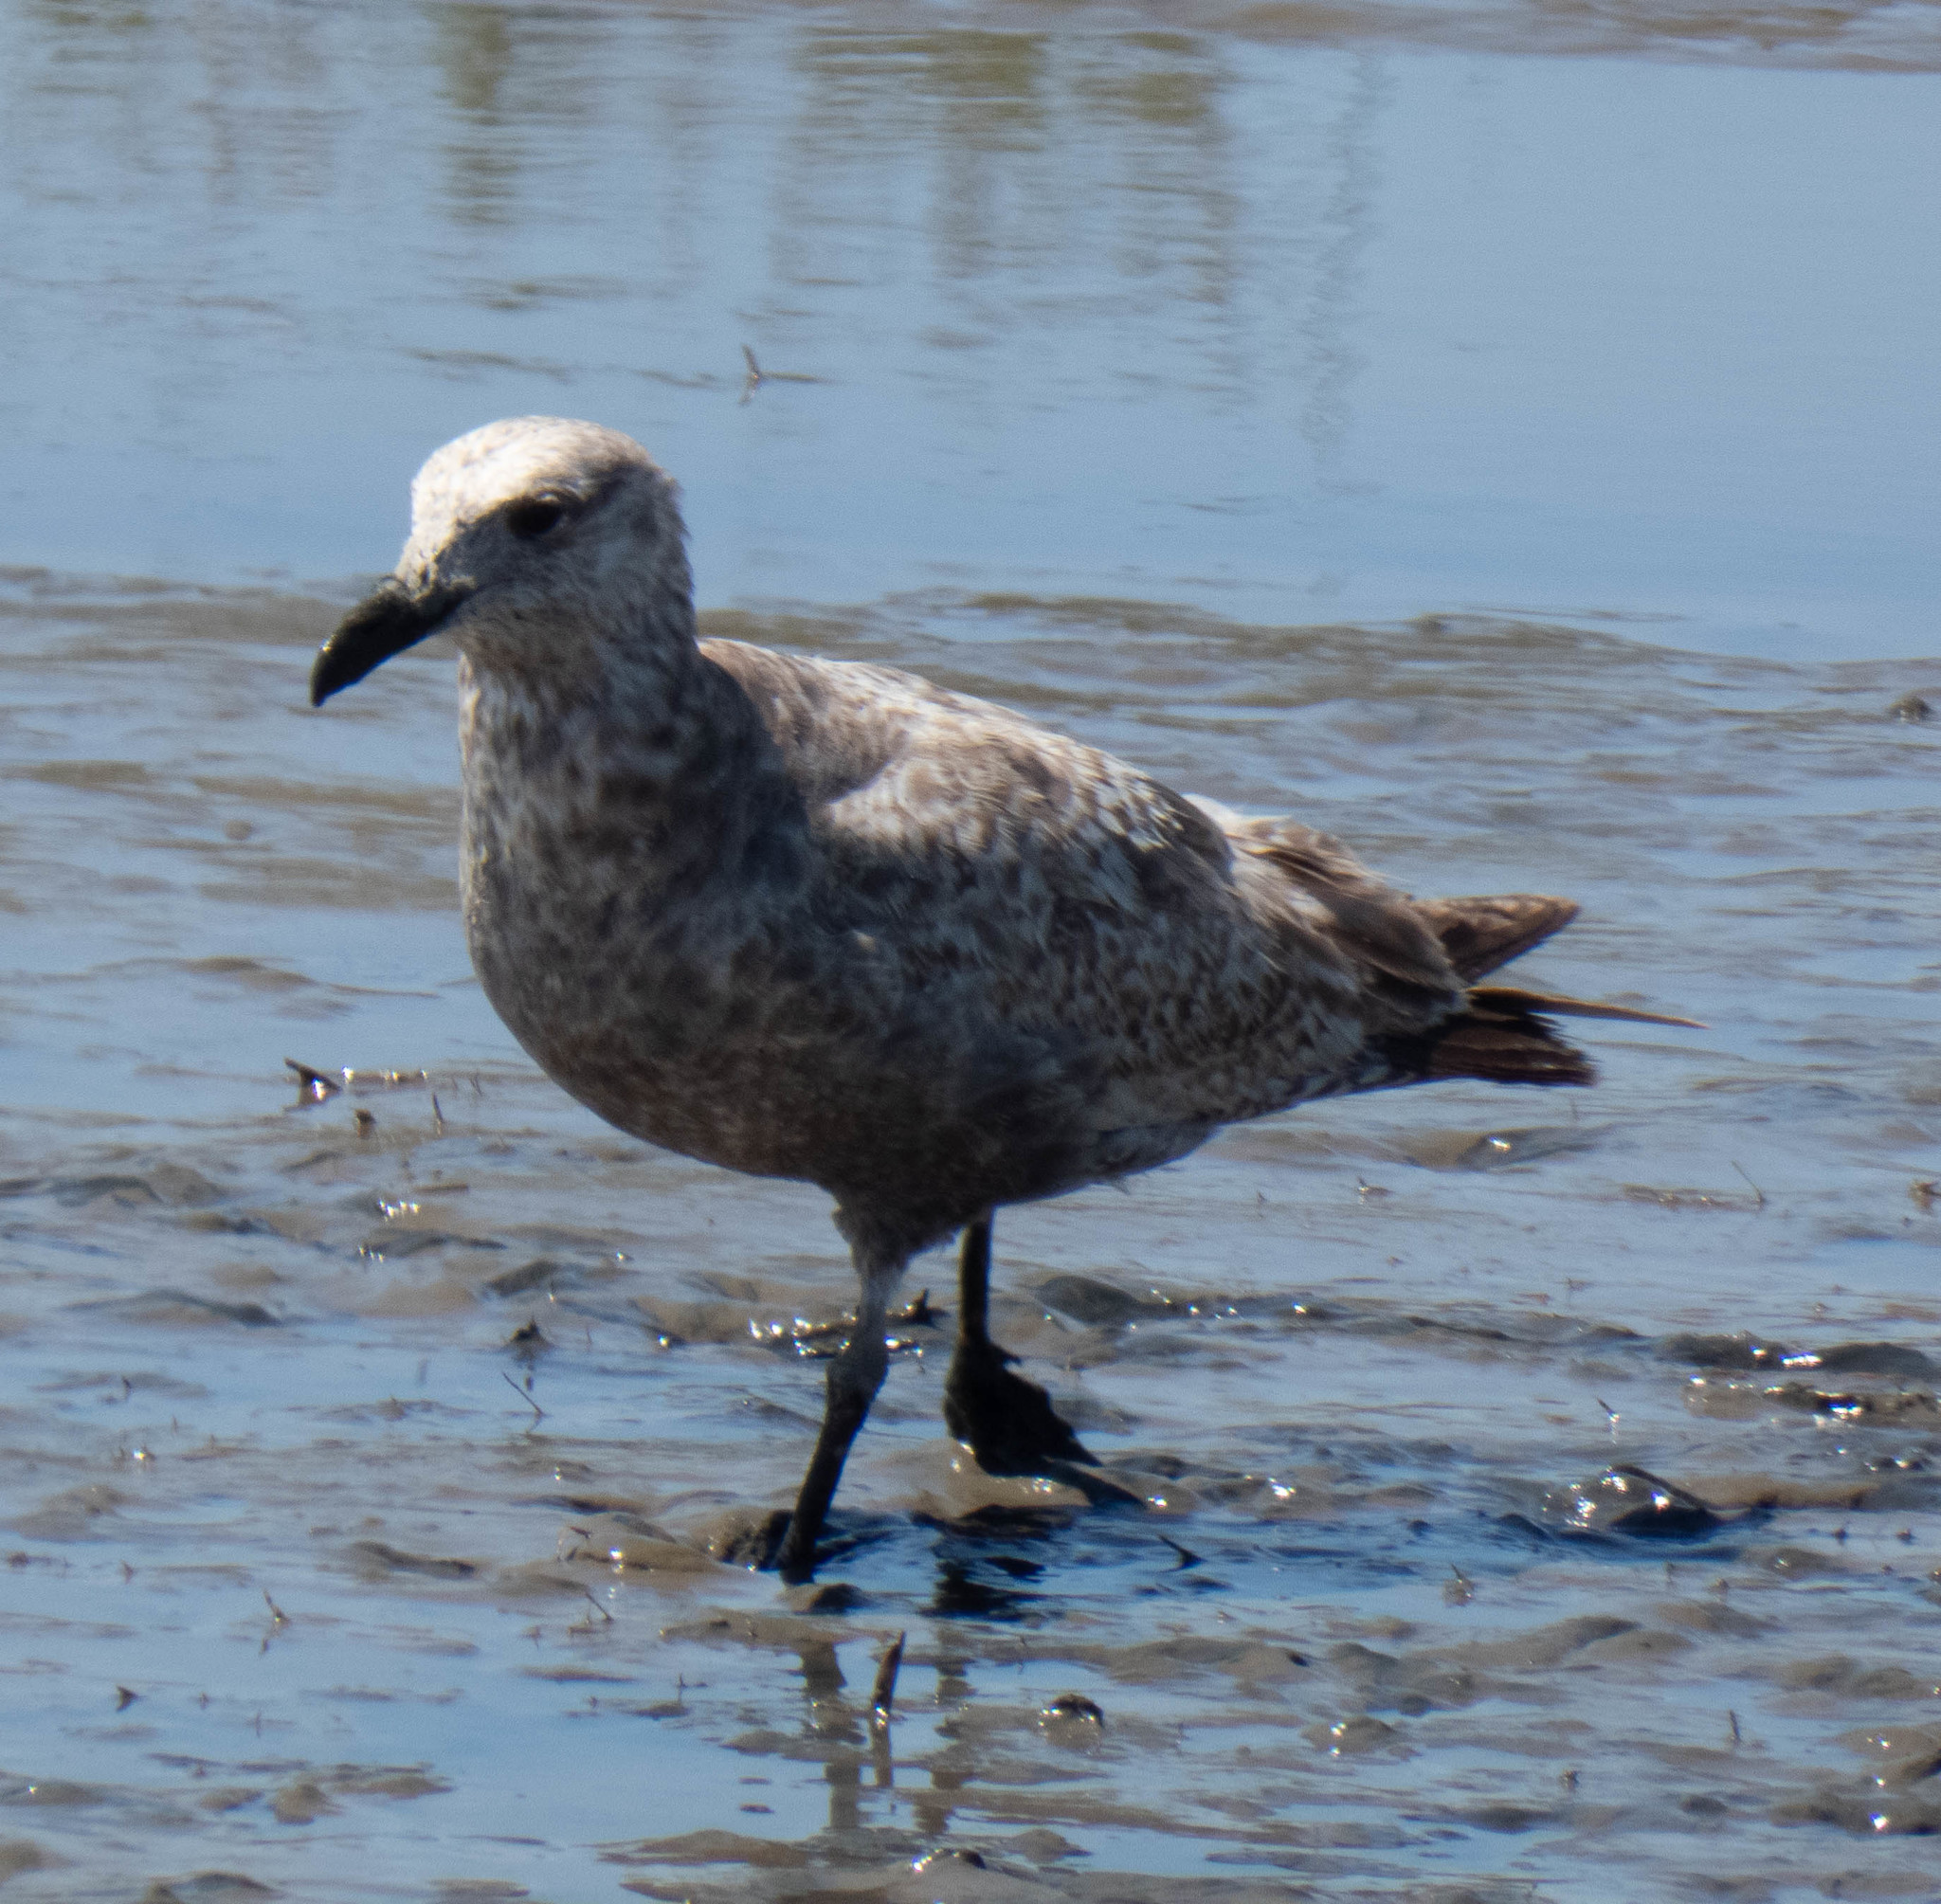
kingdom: Animalia
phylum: Chordata
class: Aves
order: Charadriiformes
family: Laridae
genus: Larus
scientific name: Larus argentatus
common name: Herring gull
